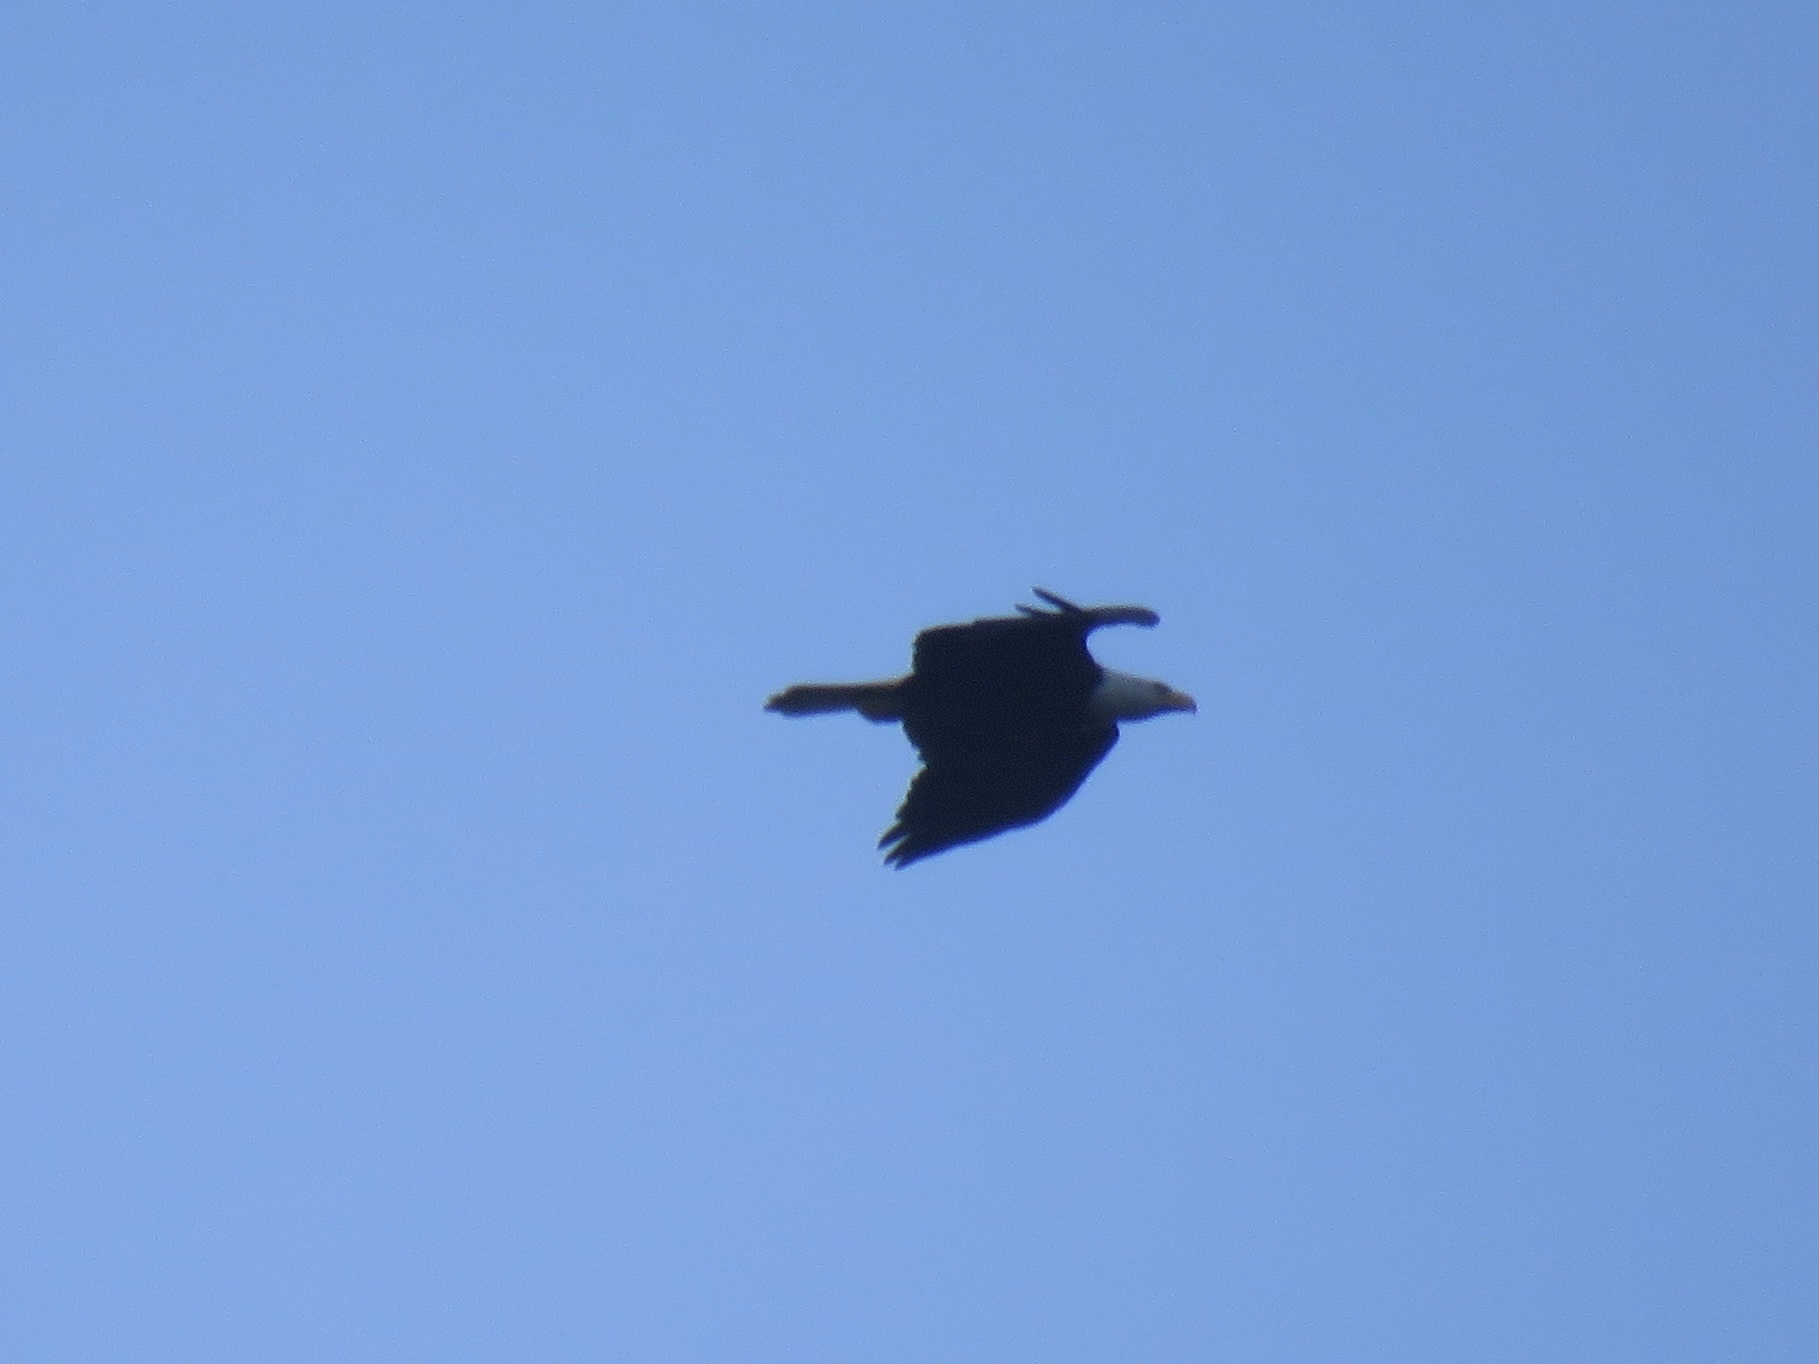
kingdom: Animalia
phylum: Chordata
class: Aves
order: Accipitriformes
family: Accipitridae
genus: Haliaeetus
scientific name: Haliaeetus leucocephalus
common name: Bald eagle
